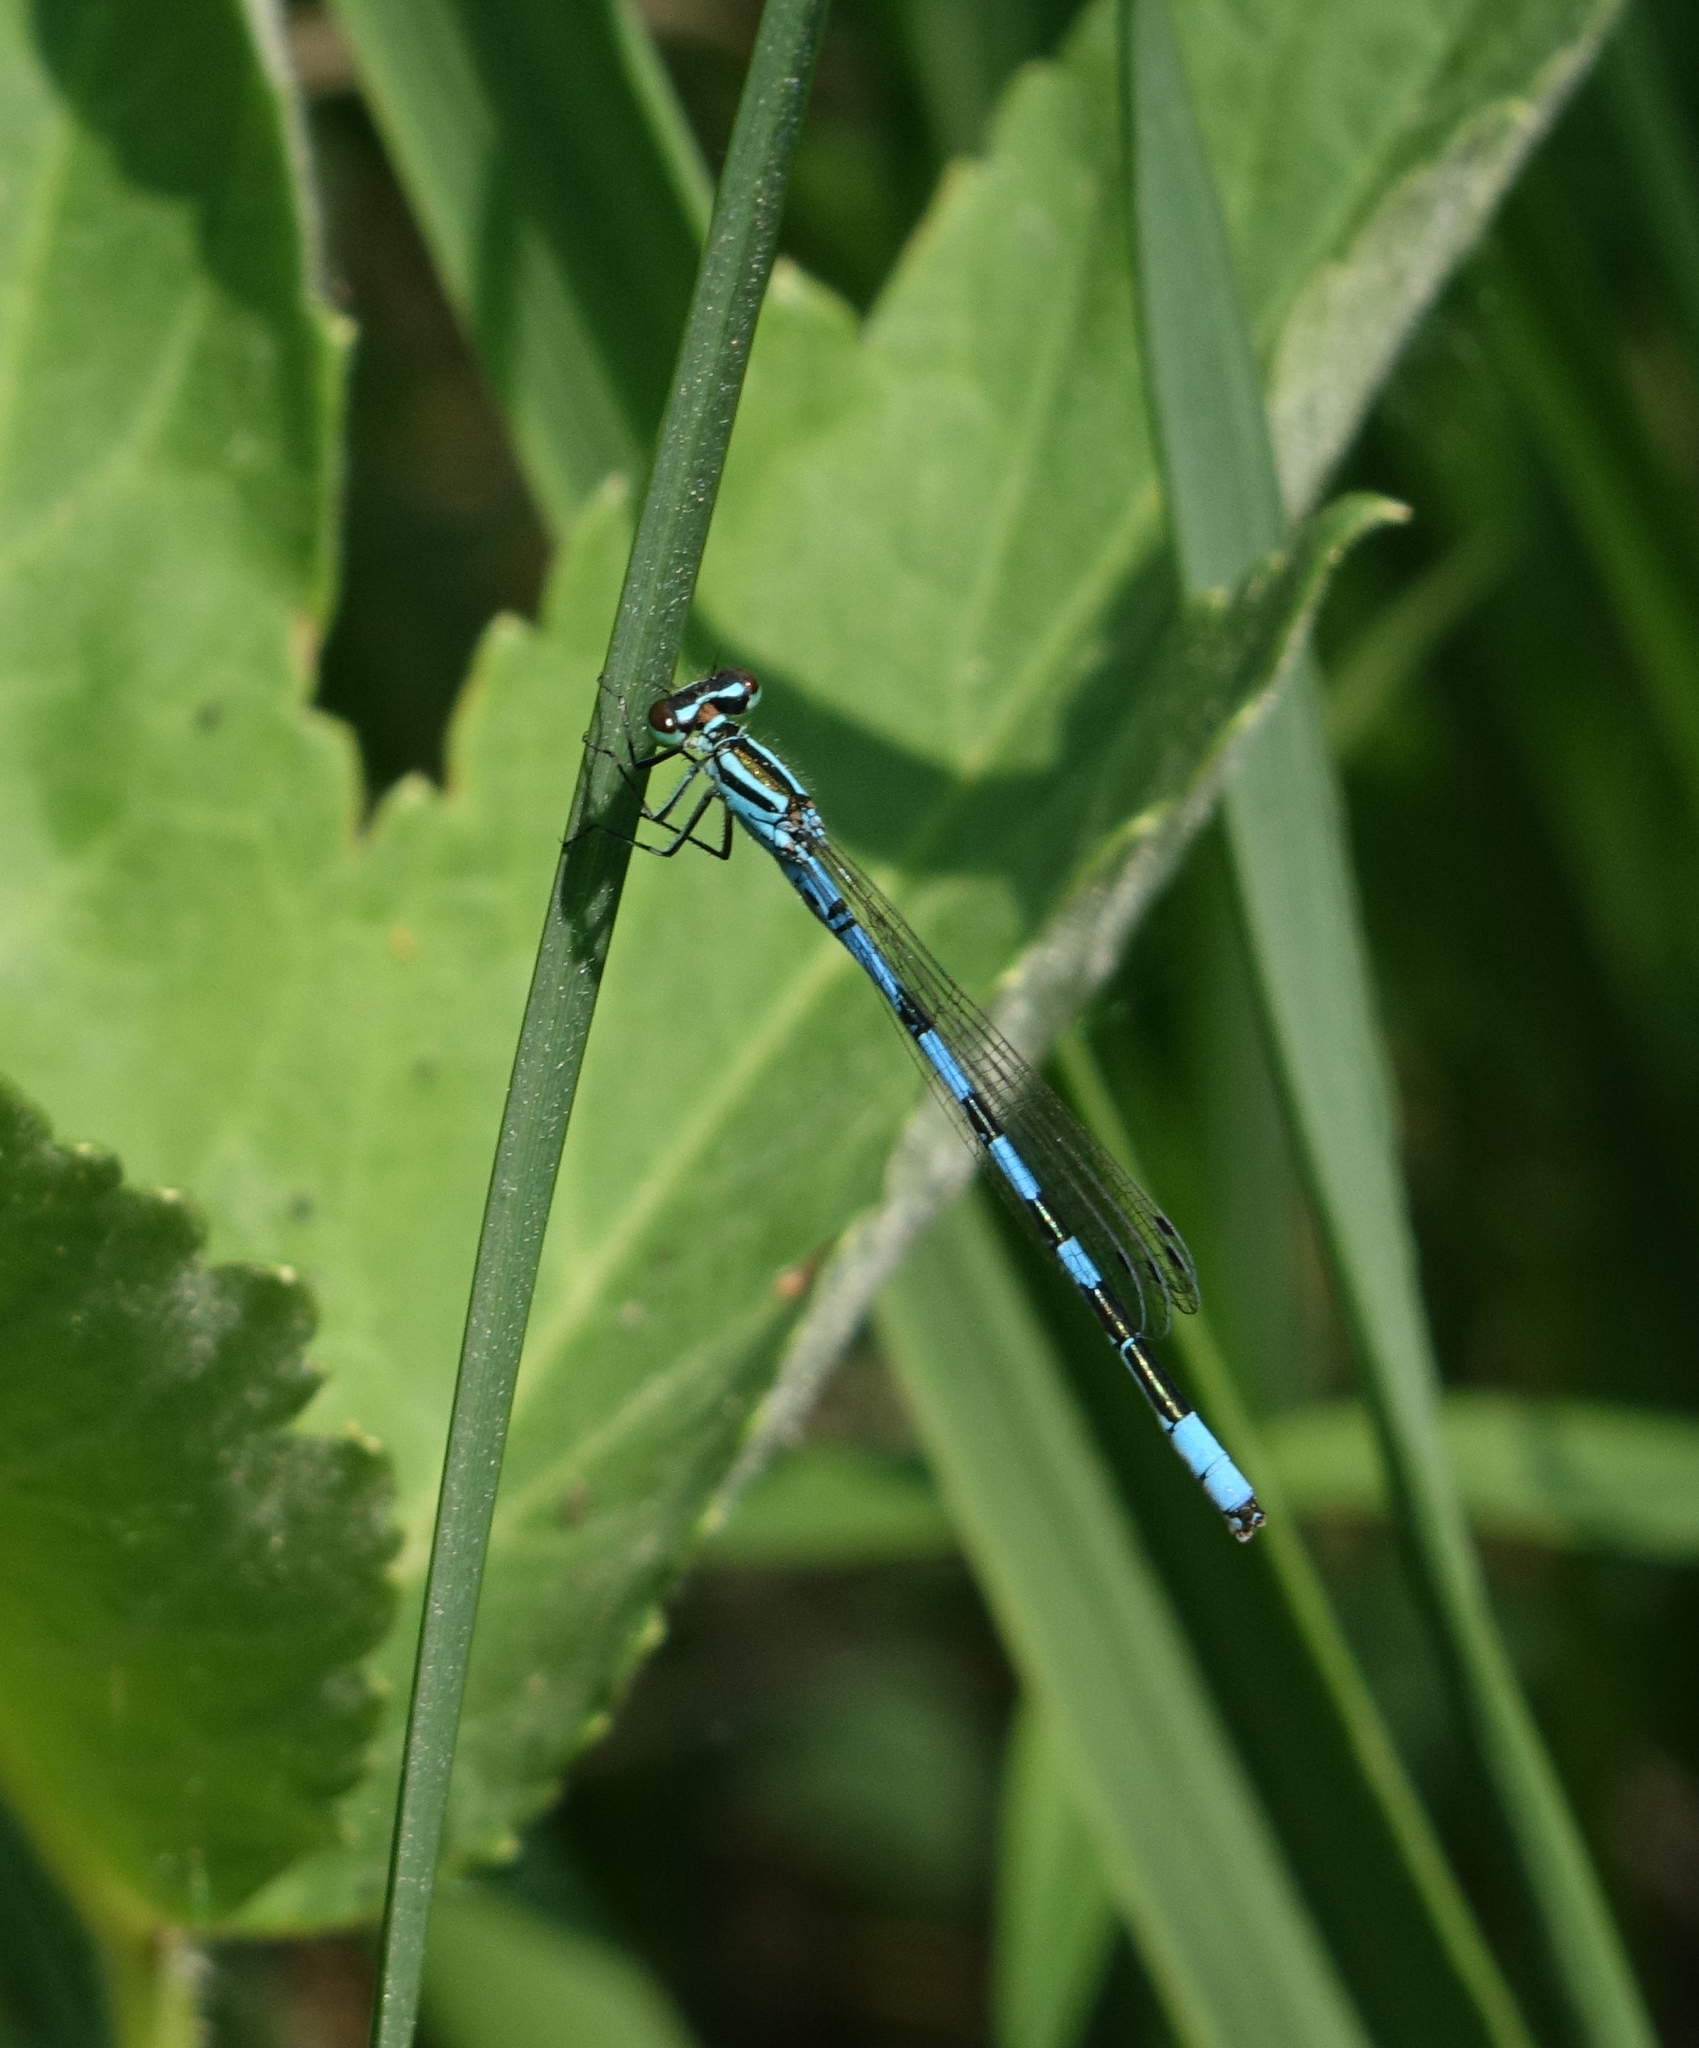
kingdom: Animalia
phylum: Arthropoda
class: Insecta
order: Odonata
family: Coenagrionidae
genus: Coenagrion
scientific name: Coenagrion hastulatum
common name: Spearhead bluet
